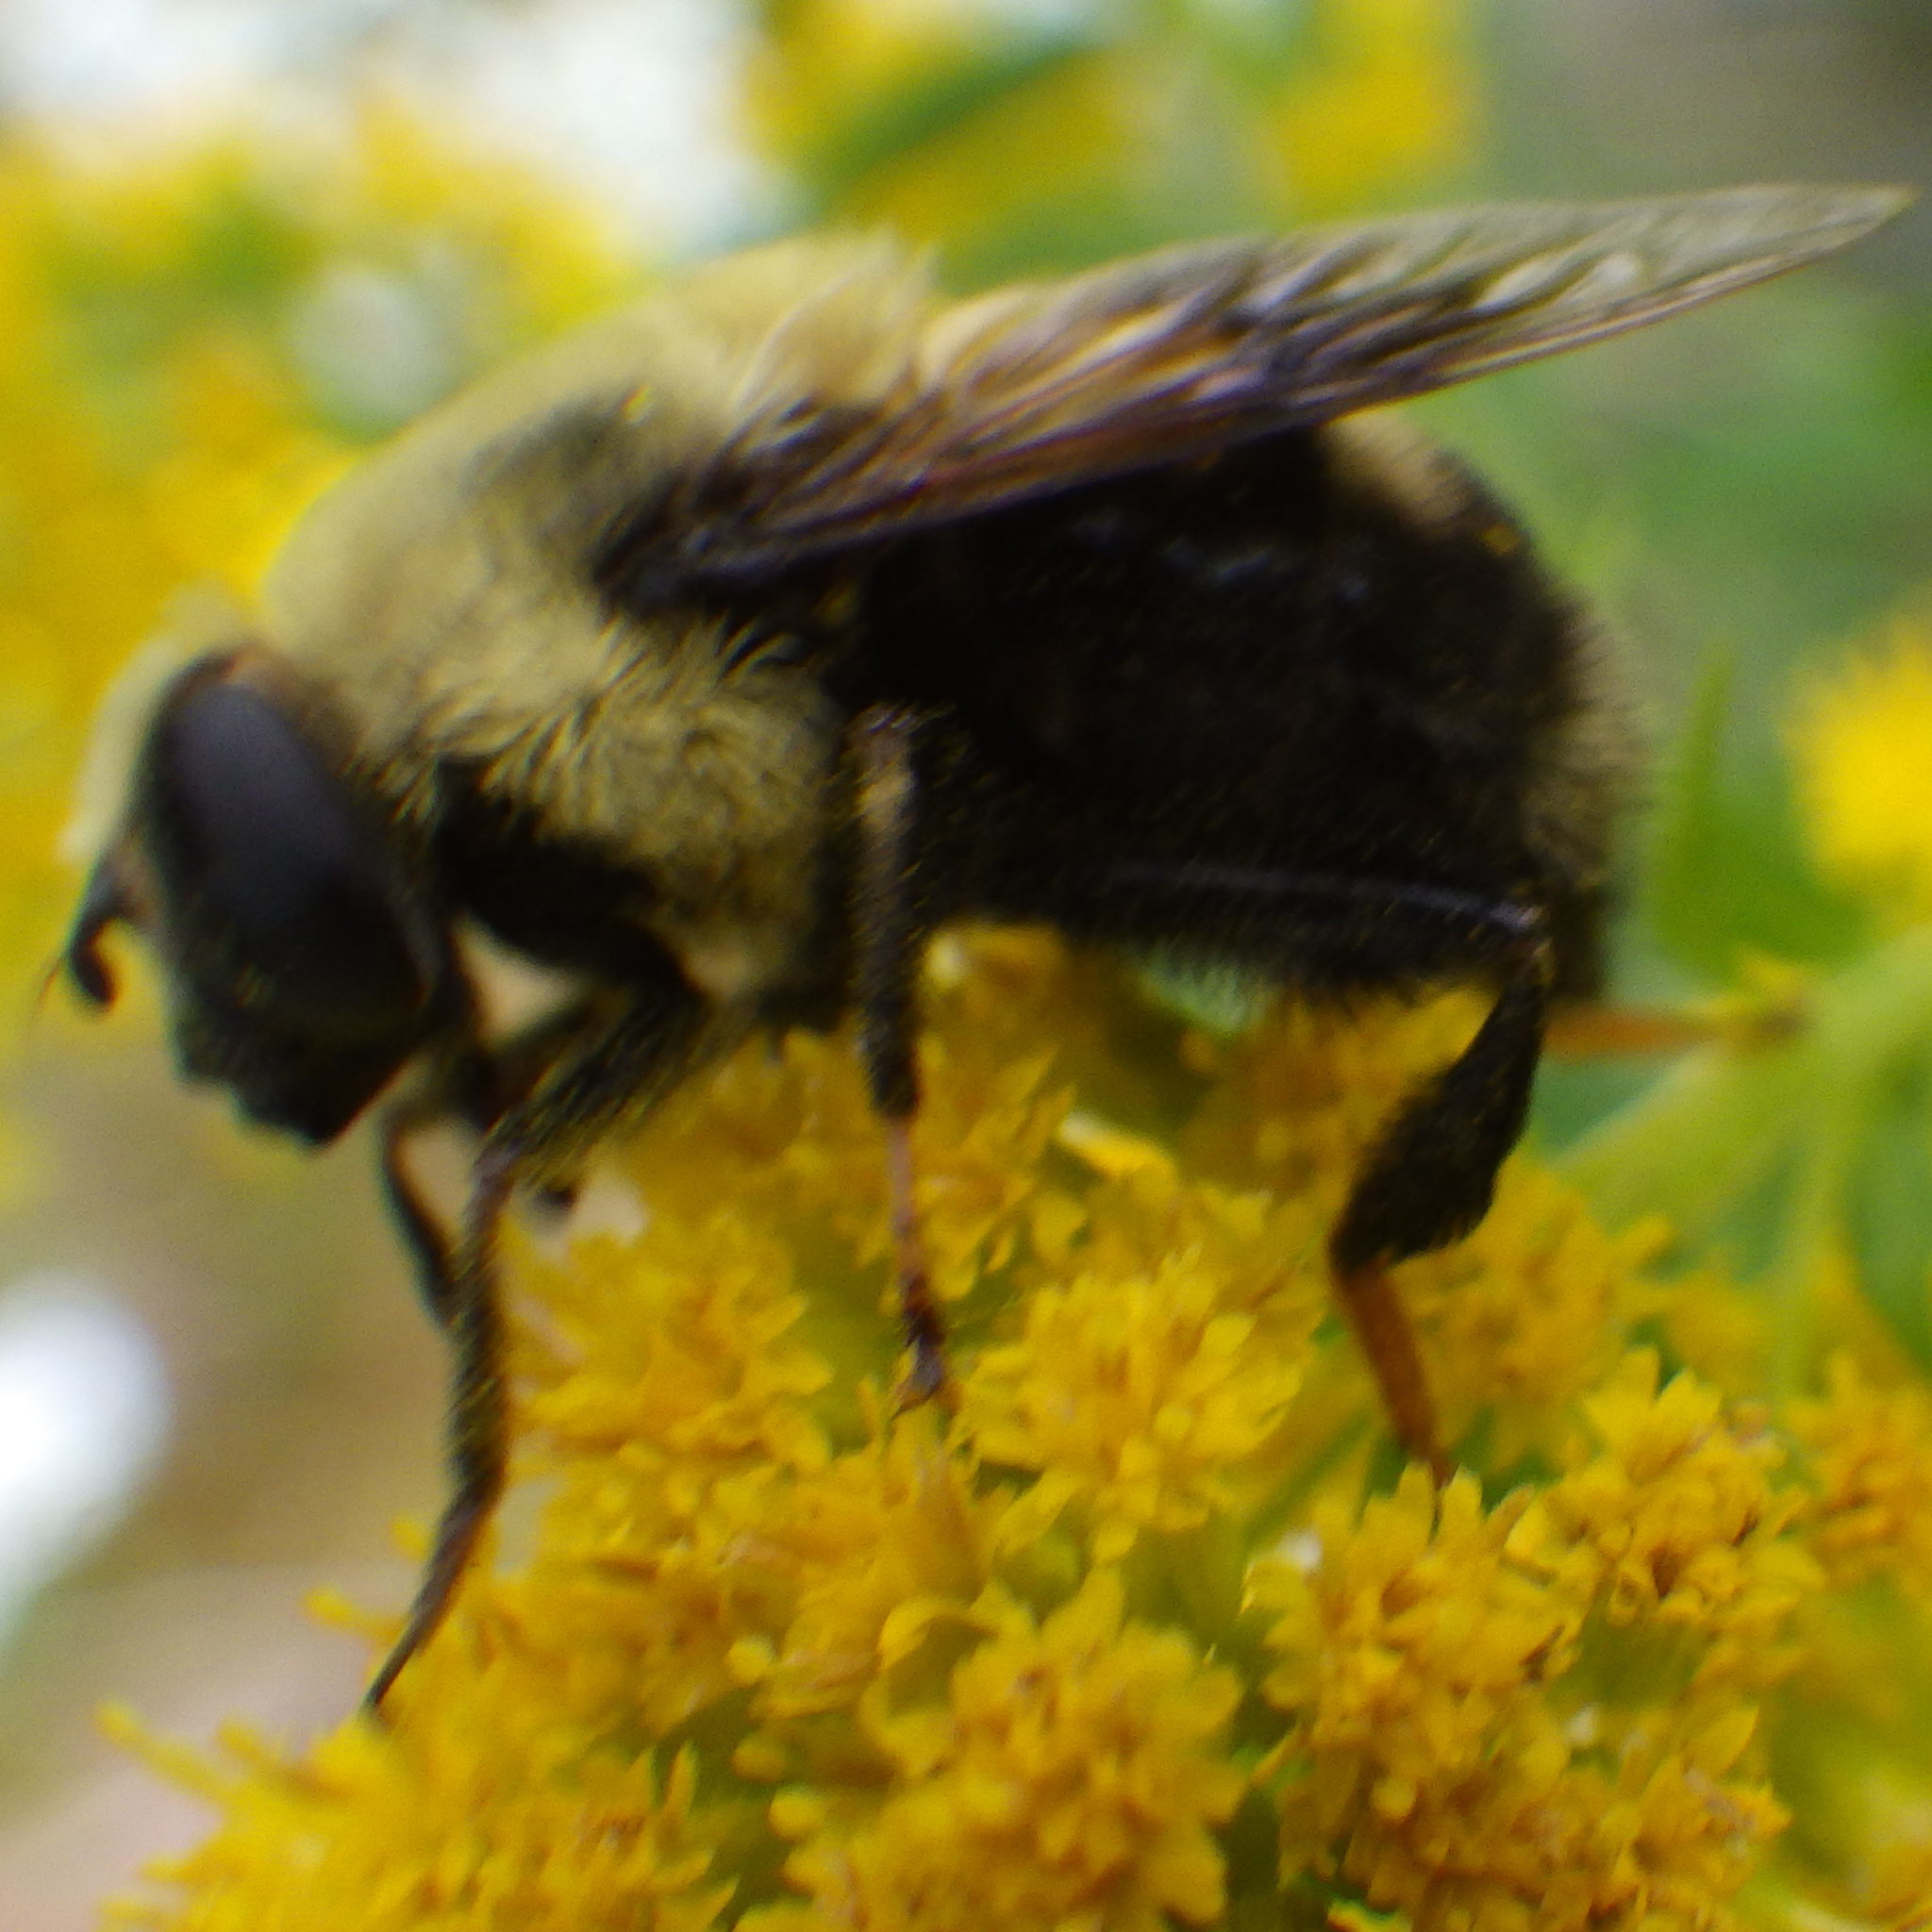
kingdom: Animalia
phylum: Arthropoda
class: Insecta
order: Diptera
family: Syrphidae
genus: Eristalis
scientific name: Eristalis flavipes
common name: Orange-legged drone fly
